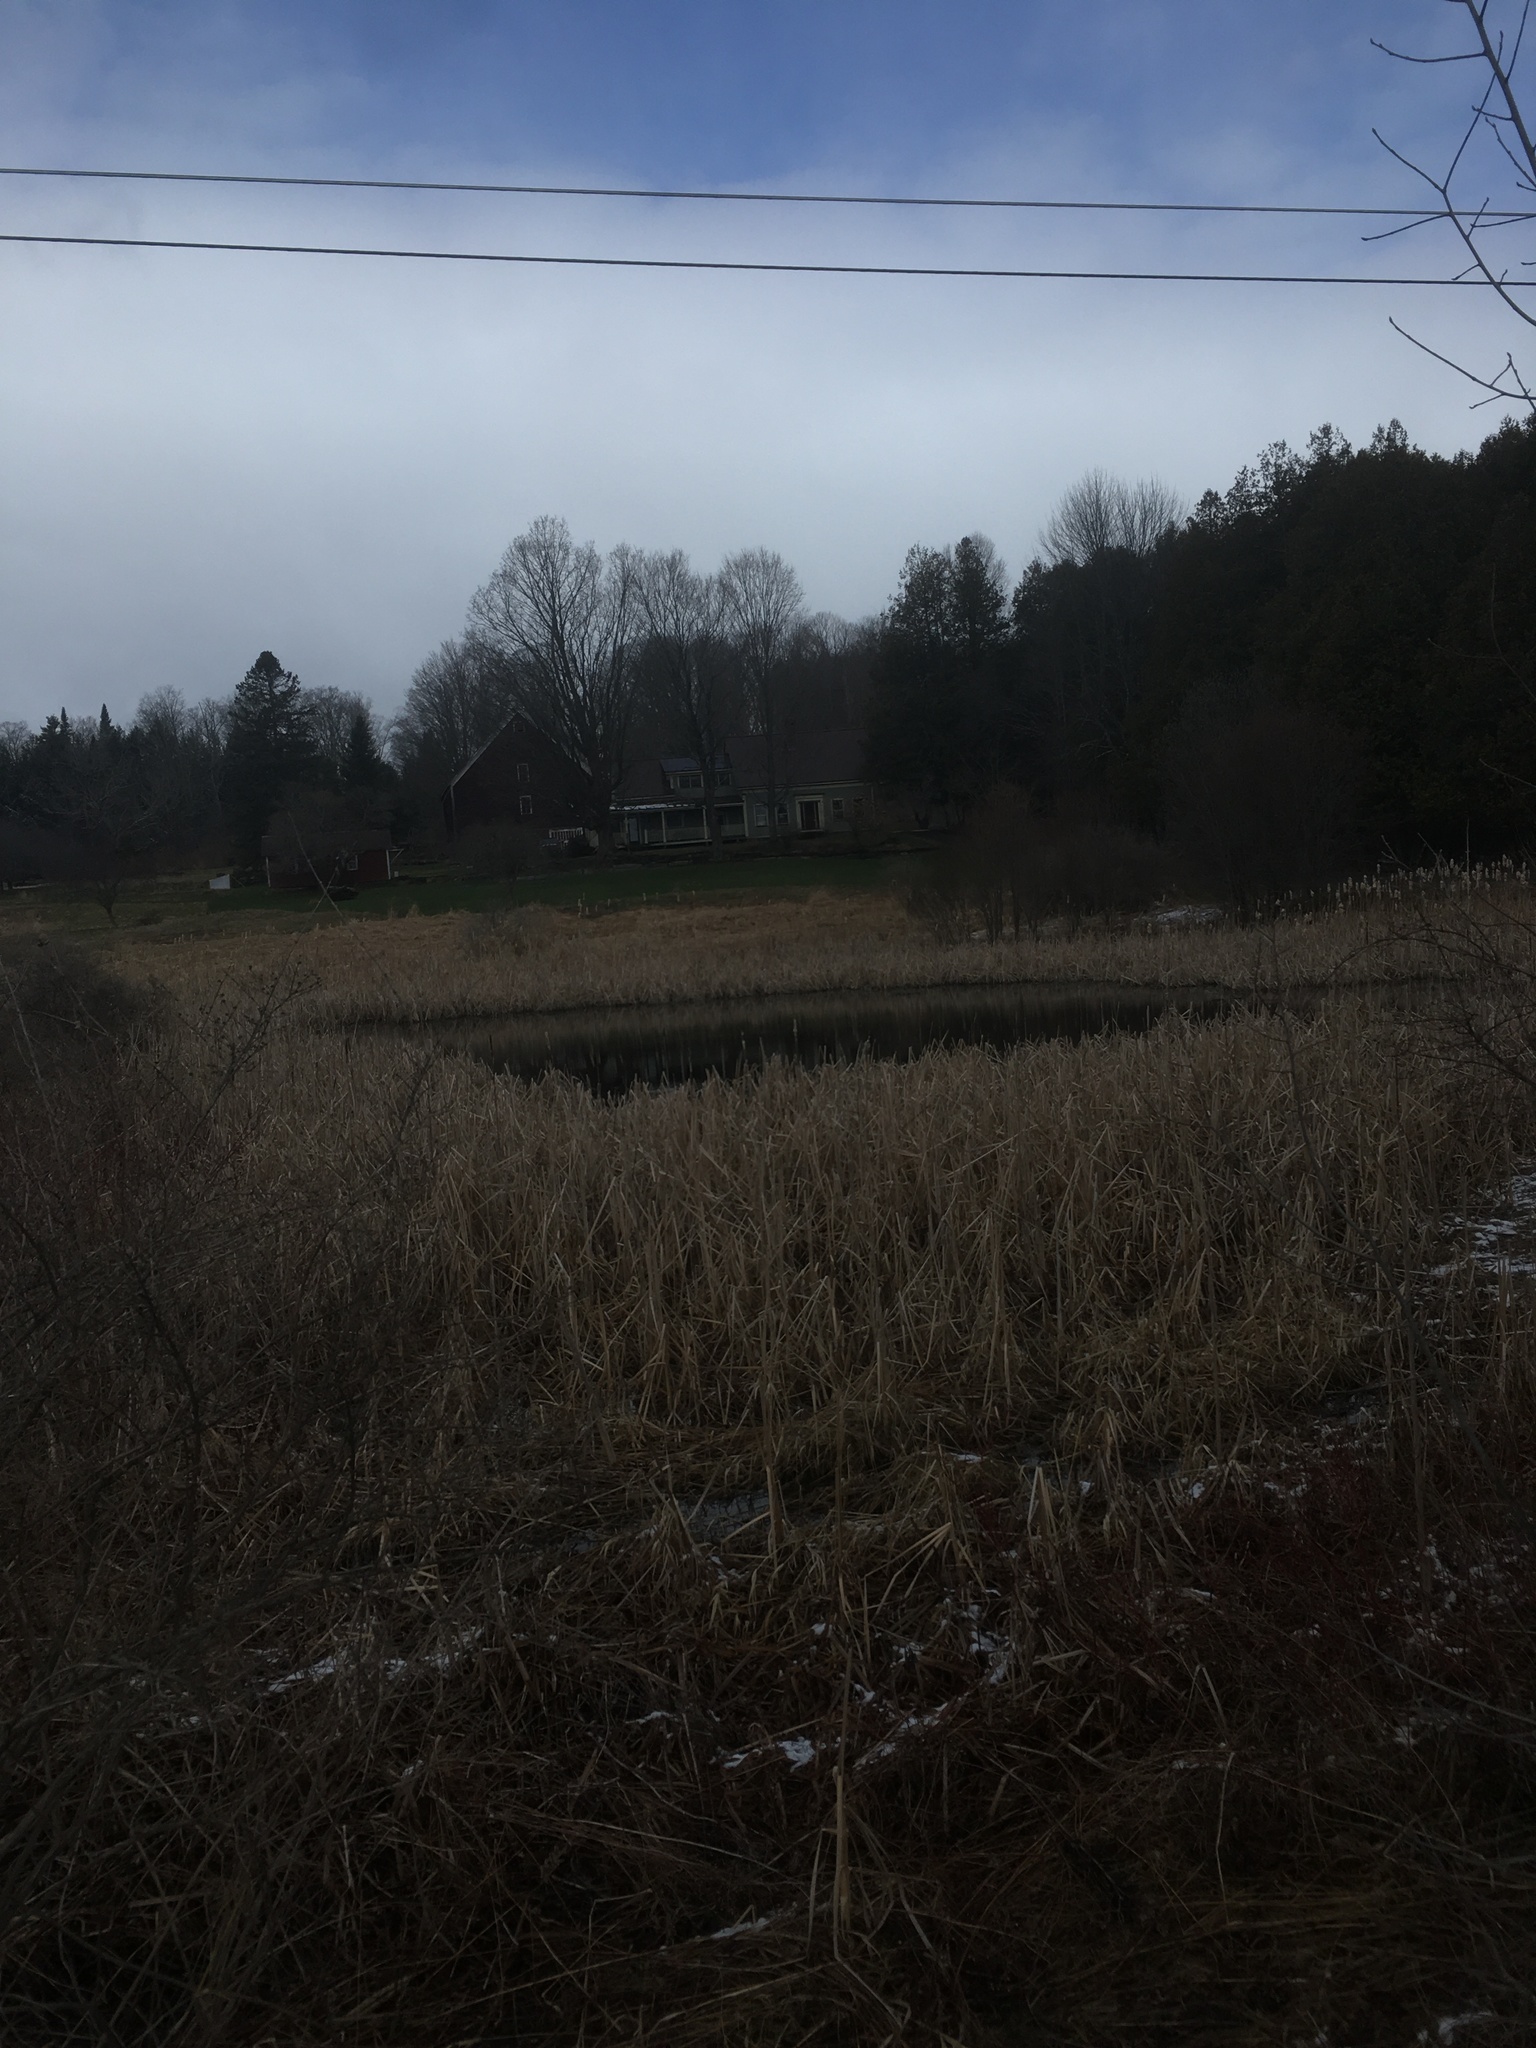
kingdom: Plantae
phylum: Tracheophyta
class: Liliopsida
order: Poales
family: Typhaceae
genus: Typha
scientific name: Typha
